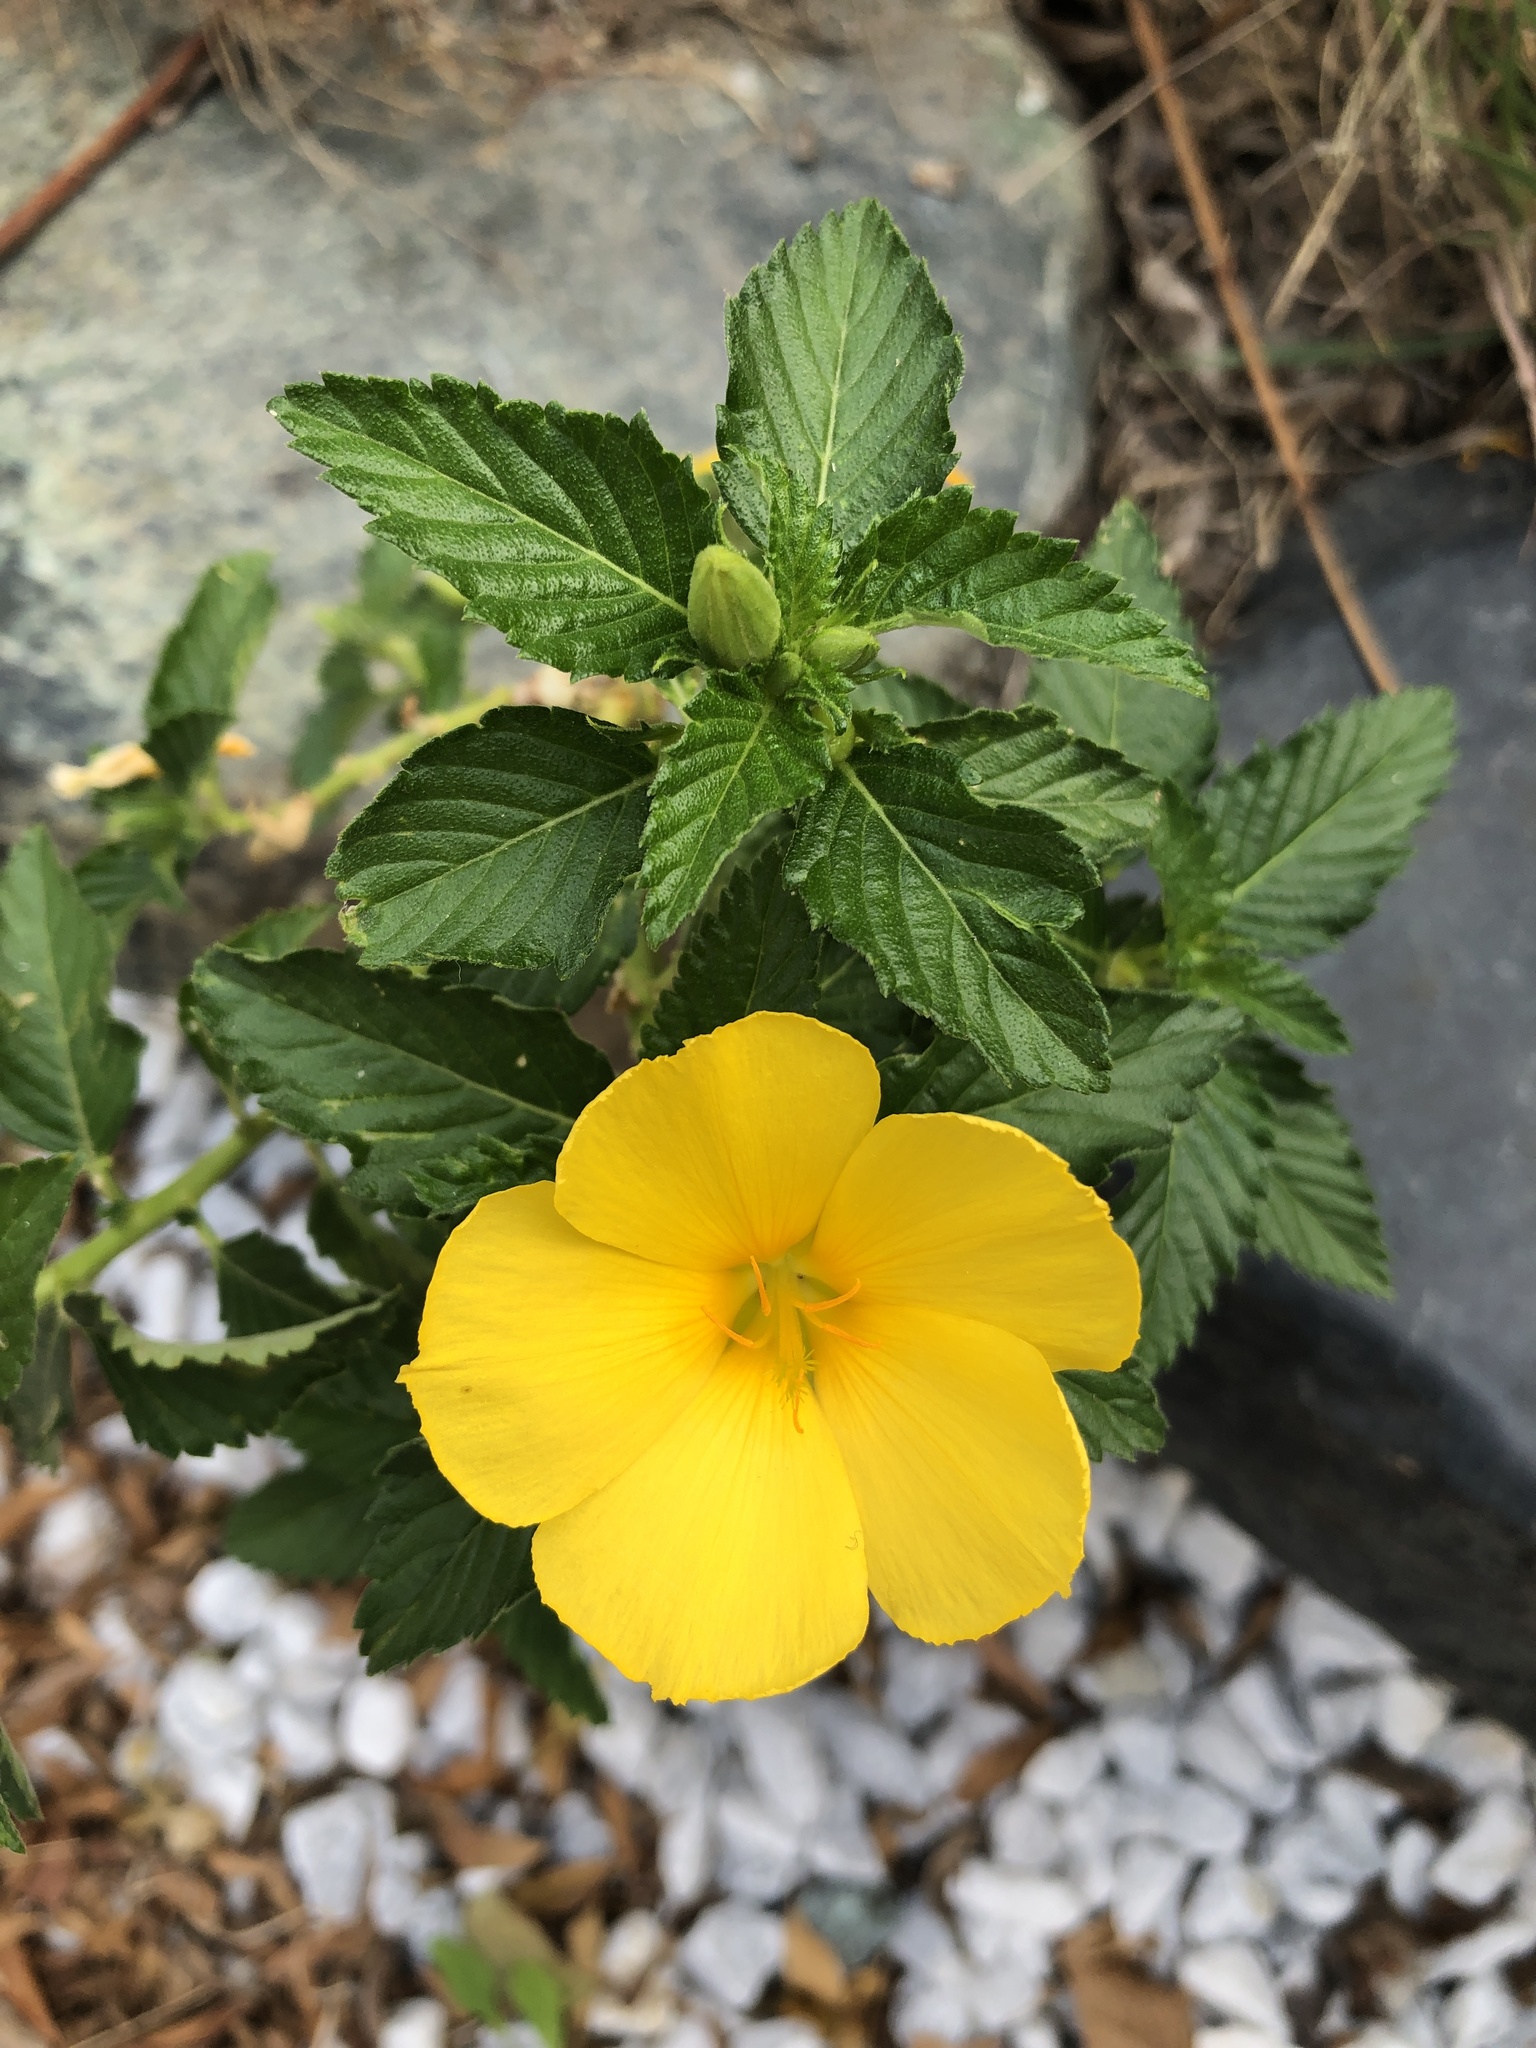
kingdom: Plantae
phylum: Tracheophyta
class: Magnoliopsida
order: Malpighiales
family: Turneraceae
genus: Turnera
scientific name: Turnera ulmifolia
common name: Ramgoat dashalong
